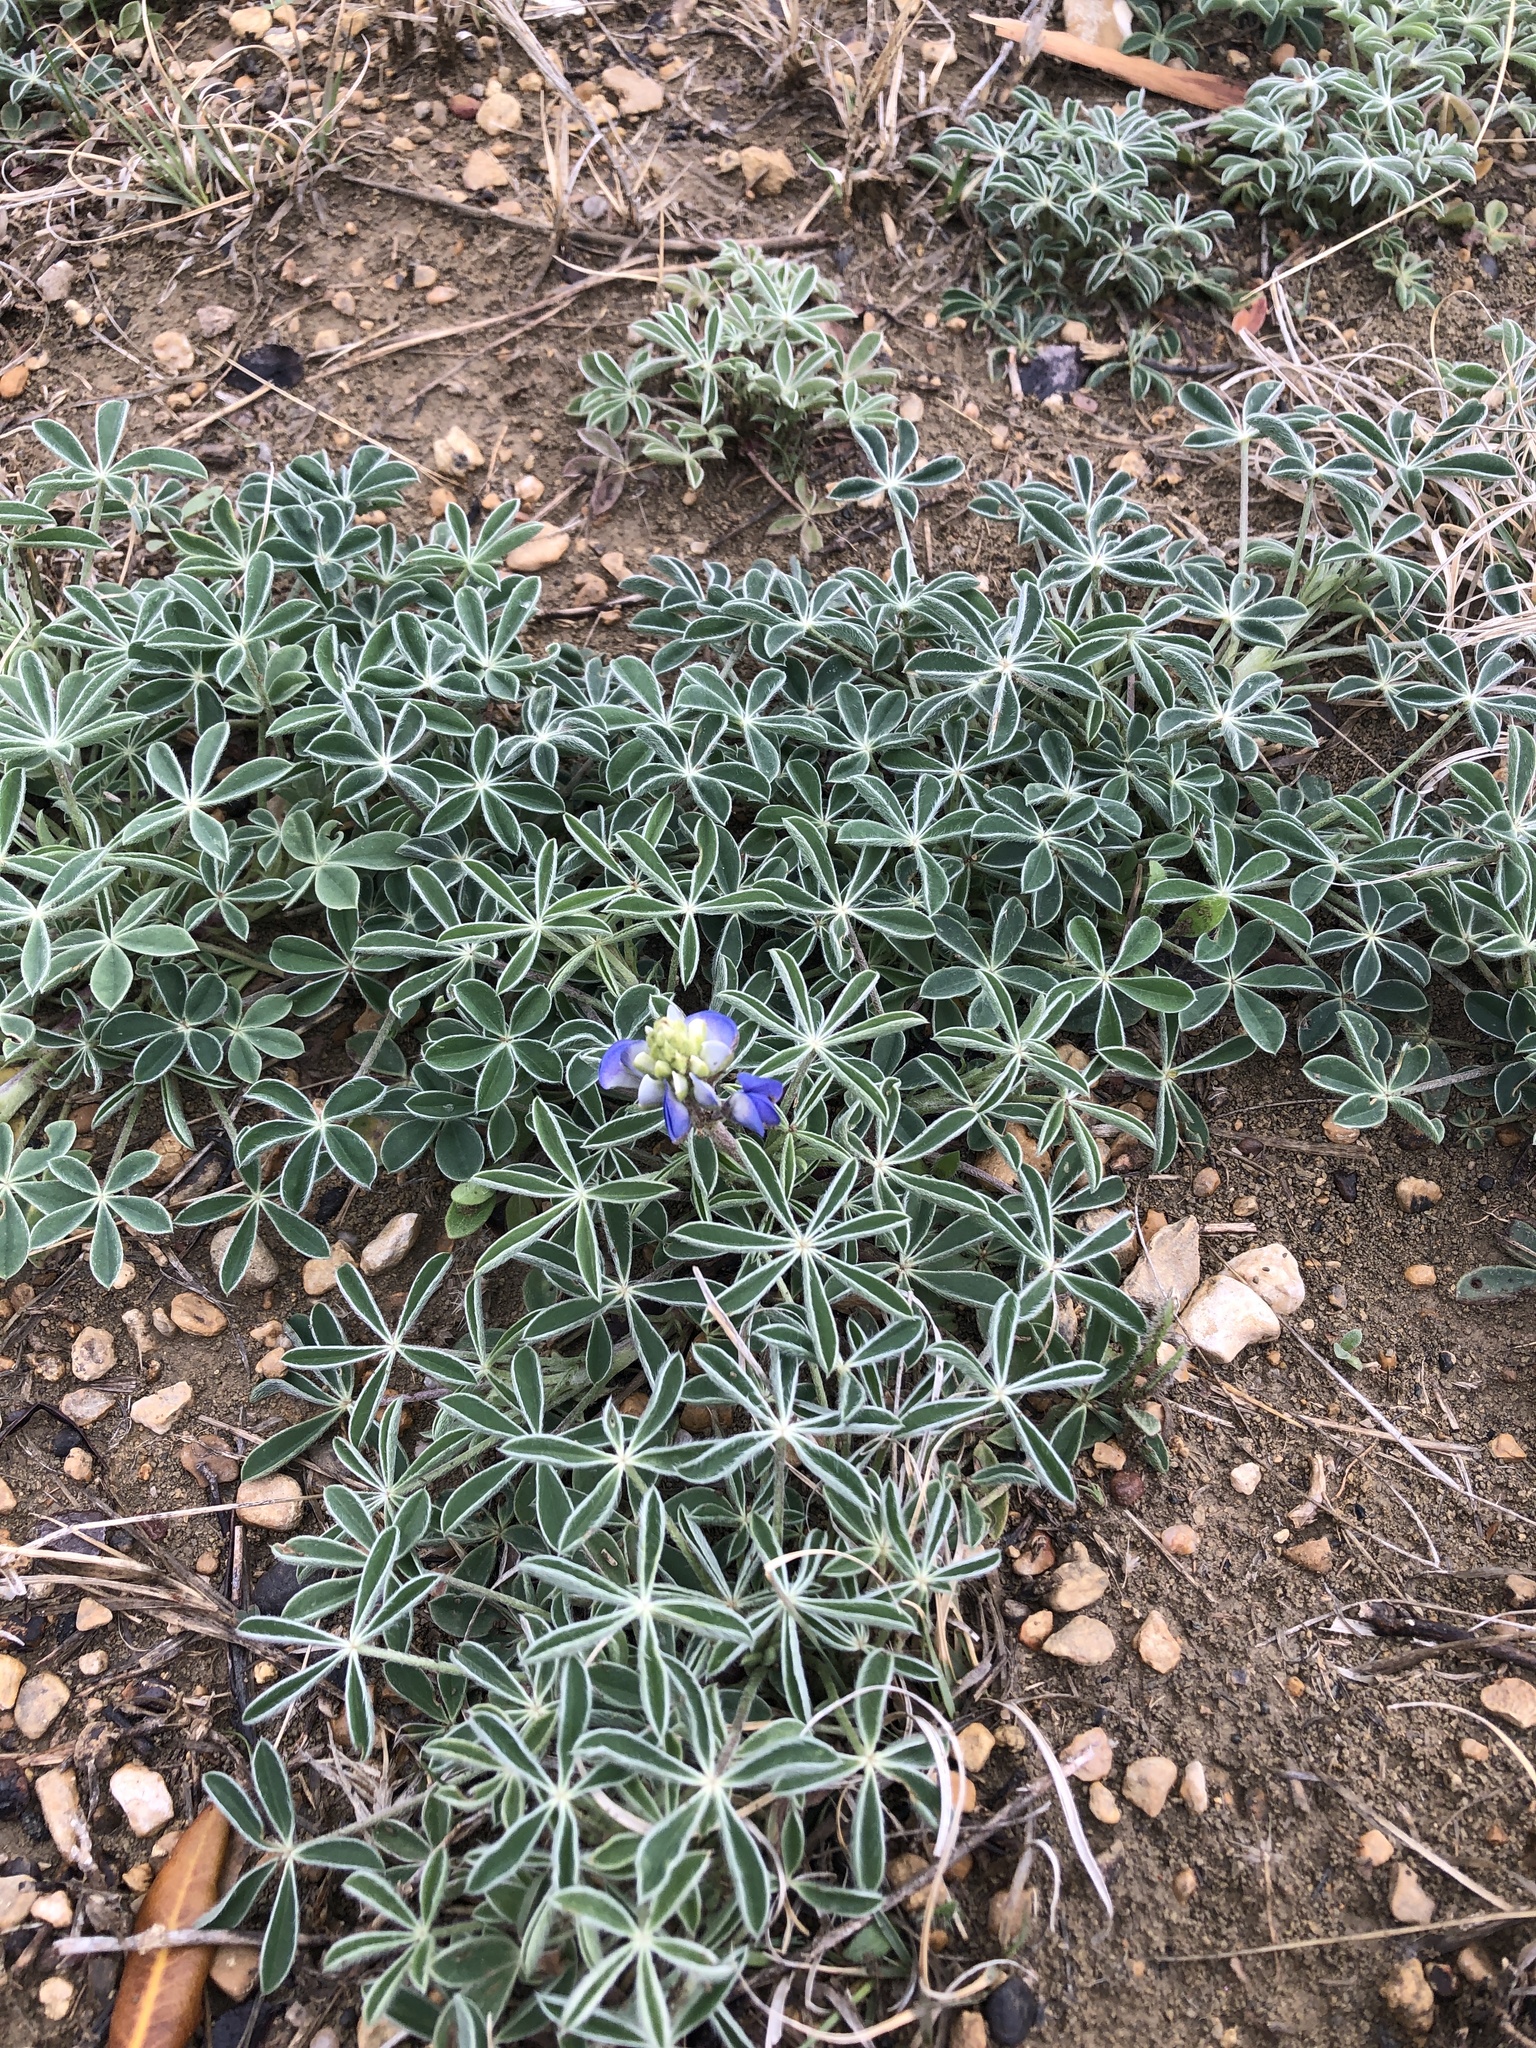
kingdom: Plantae
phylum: Tracheophyta
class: Magnoliopsida
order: Fabales
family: Fabaceae
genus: Lupinus
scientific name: Lupinus texensis
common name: Texas bluebonnet
